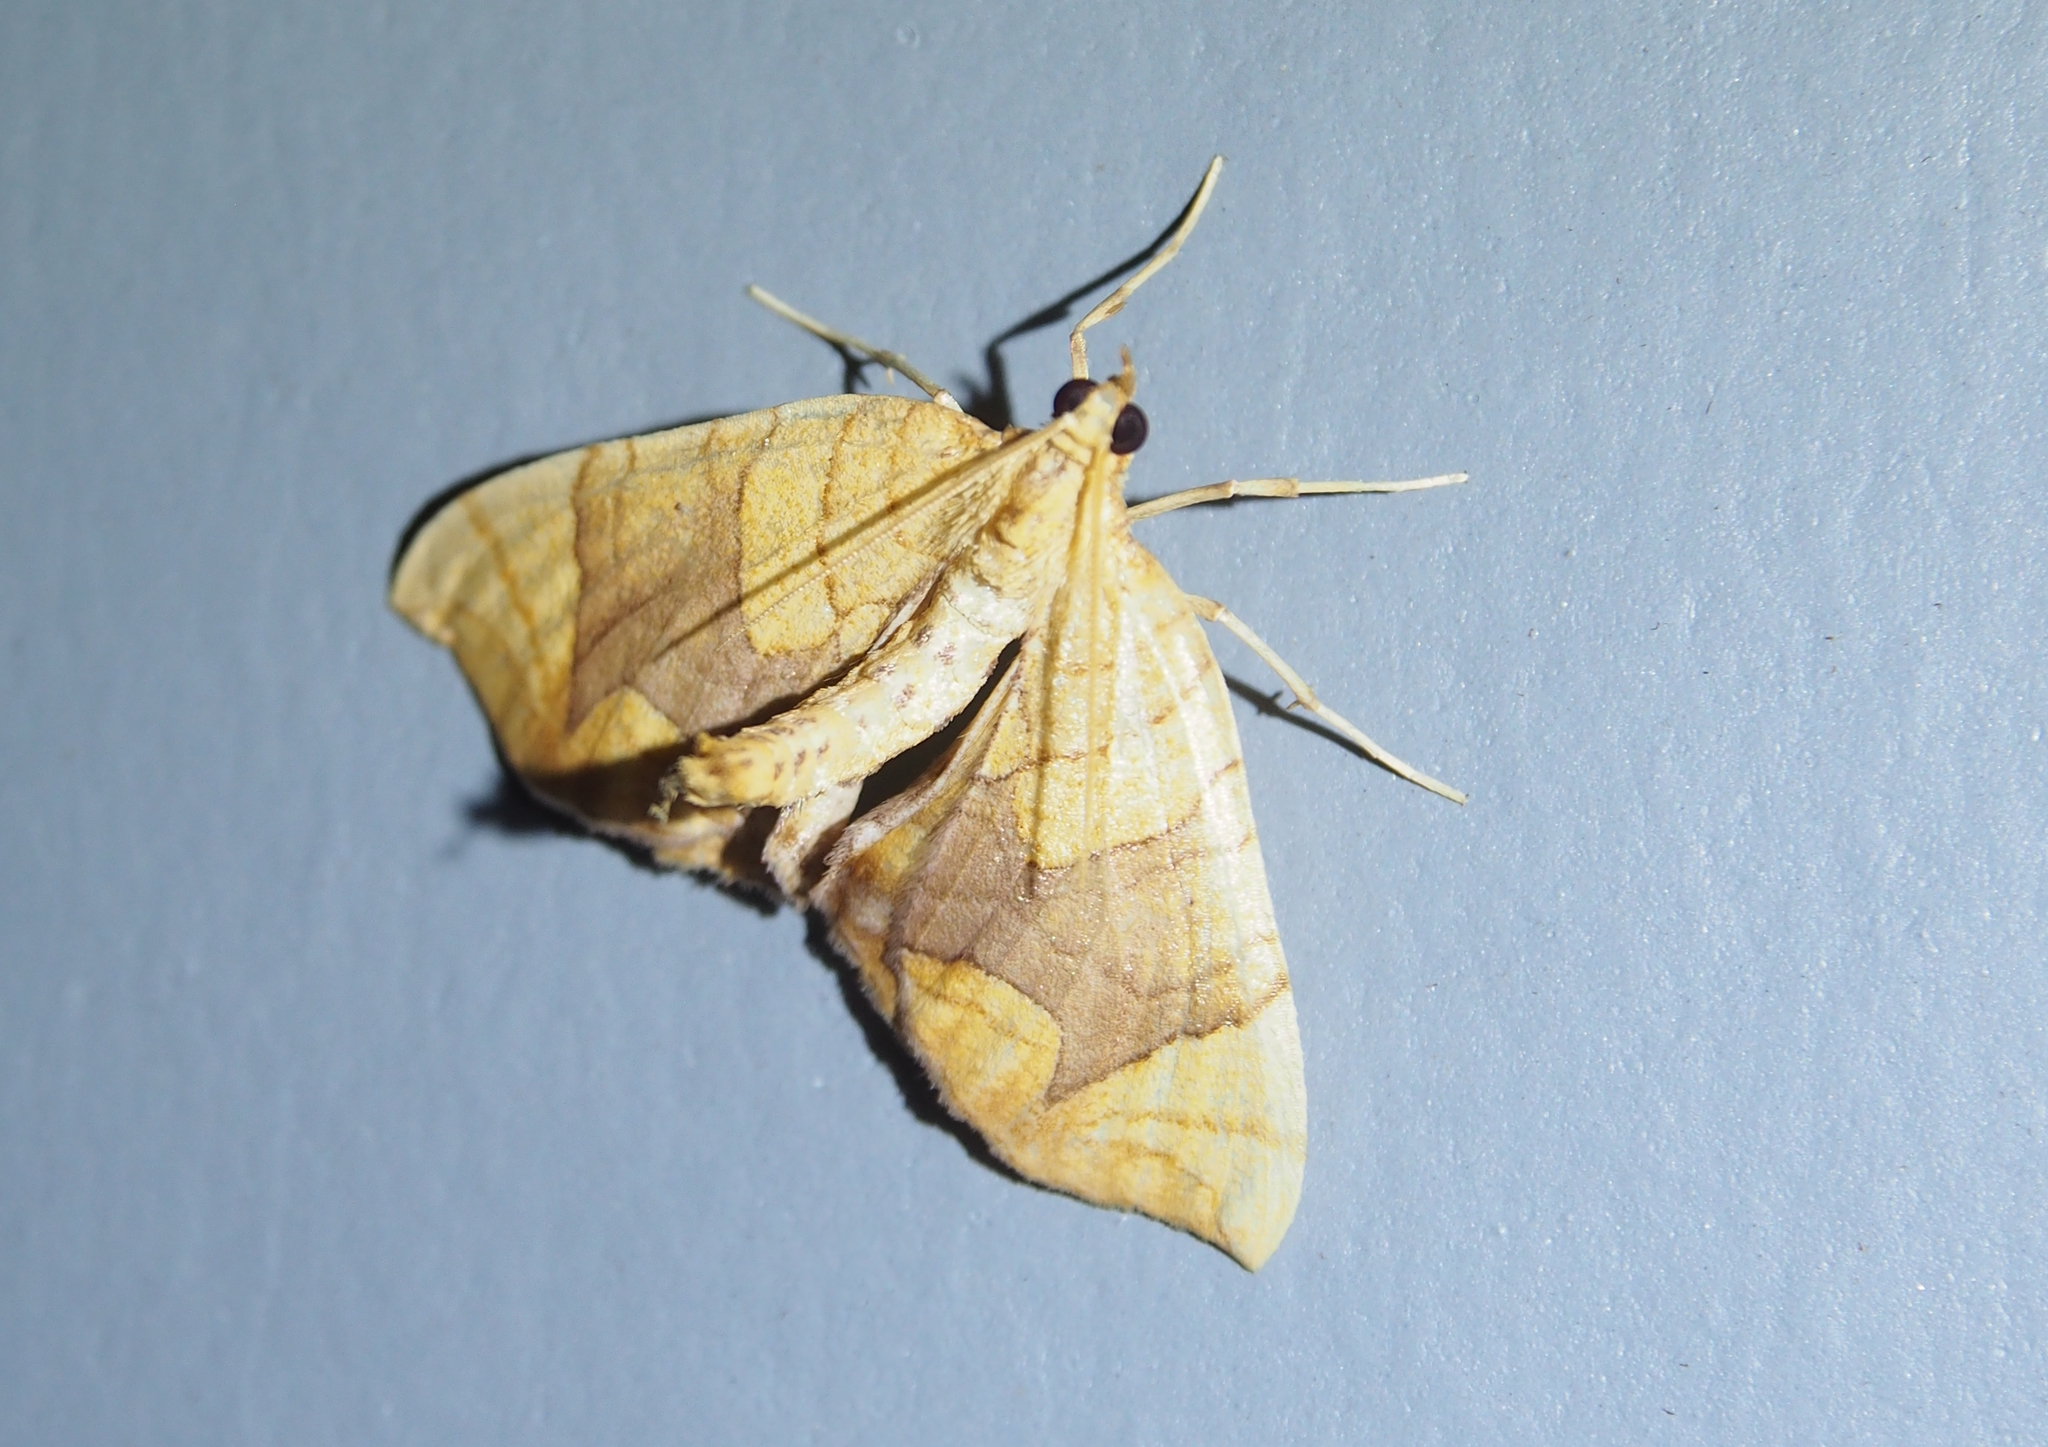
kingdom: Animalia
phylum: Arthropoda
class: Insecta
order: Lepidoptera
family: Geometridae
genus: Eulithis
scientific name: Eulithis diversilineata
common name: Grapevine looper
